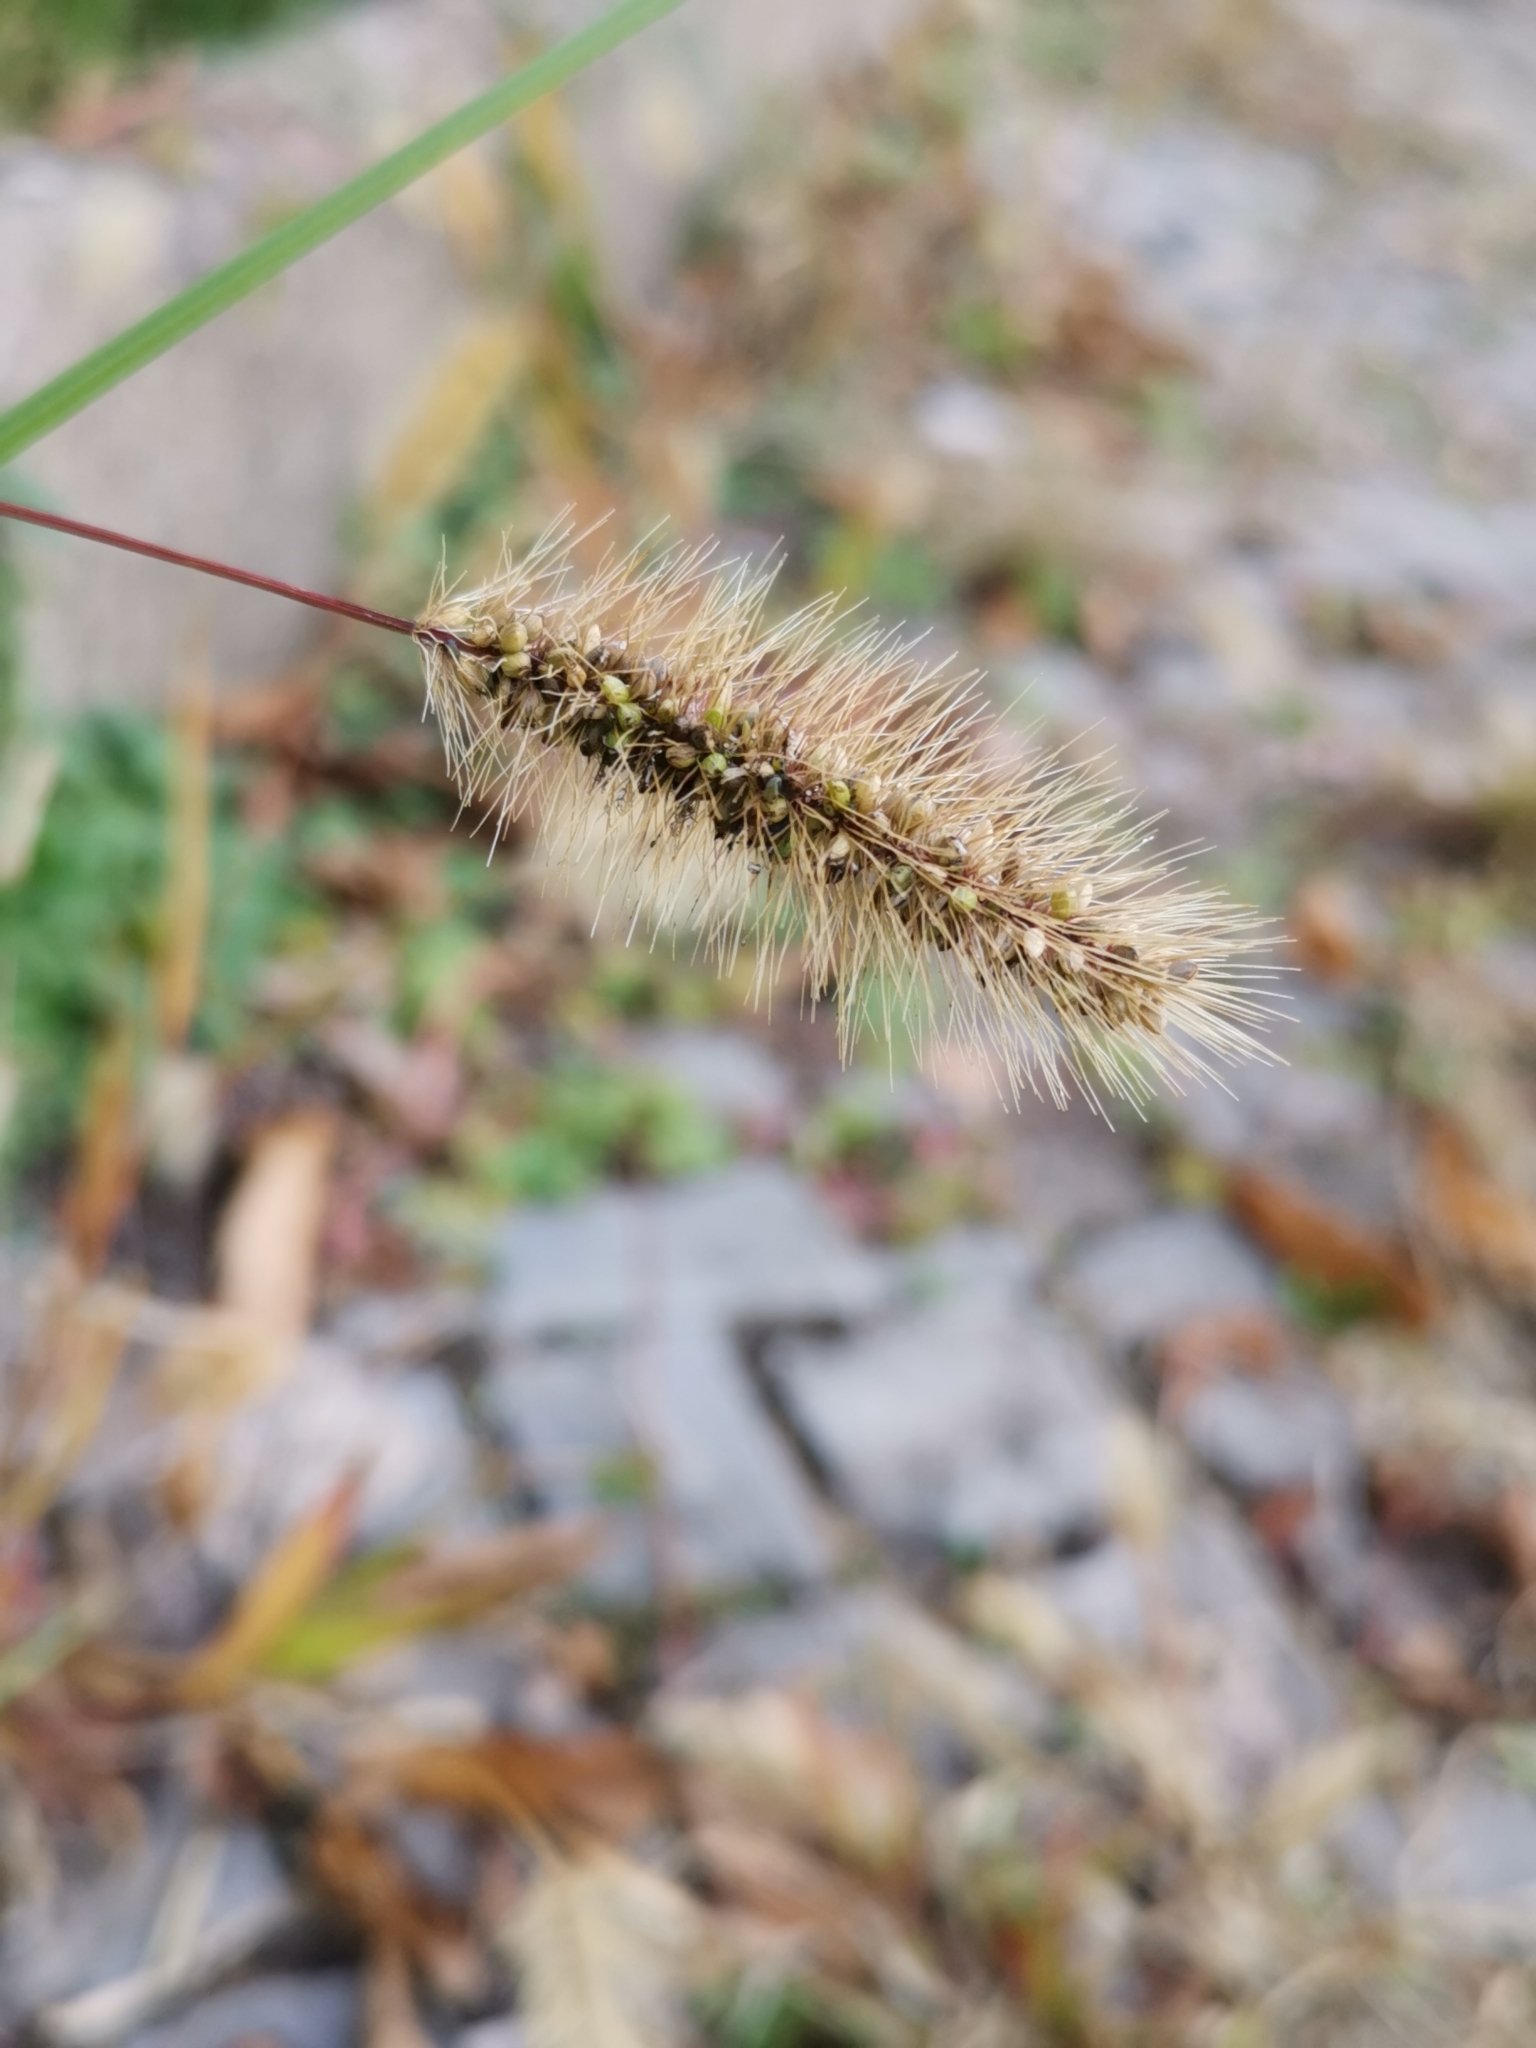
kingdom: Plantae
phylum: Tracheophyta
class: Liliopsida
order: Poales
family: Poaceae
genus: Setaria
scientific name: Setaria viridis
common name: Green bristlegrass
